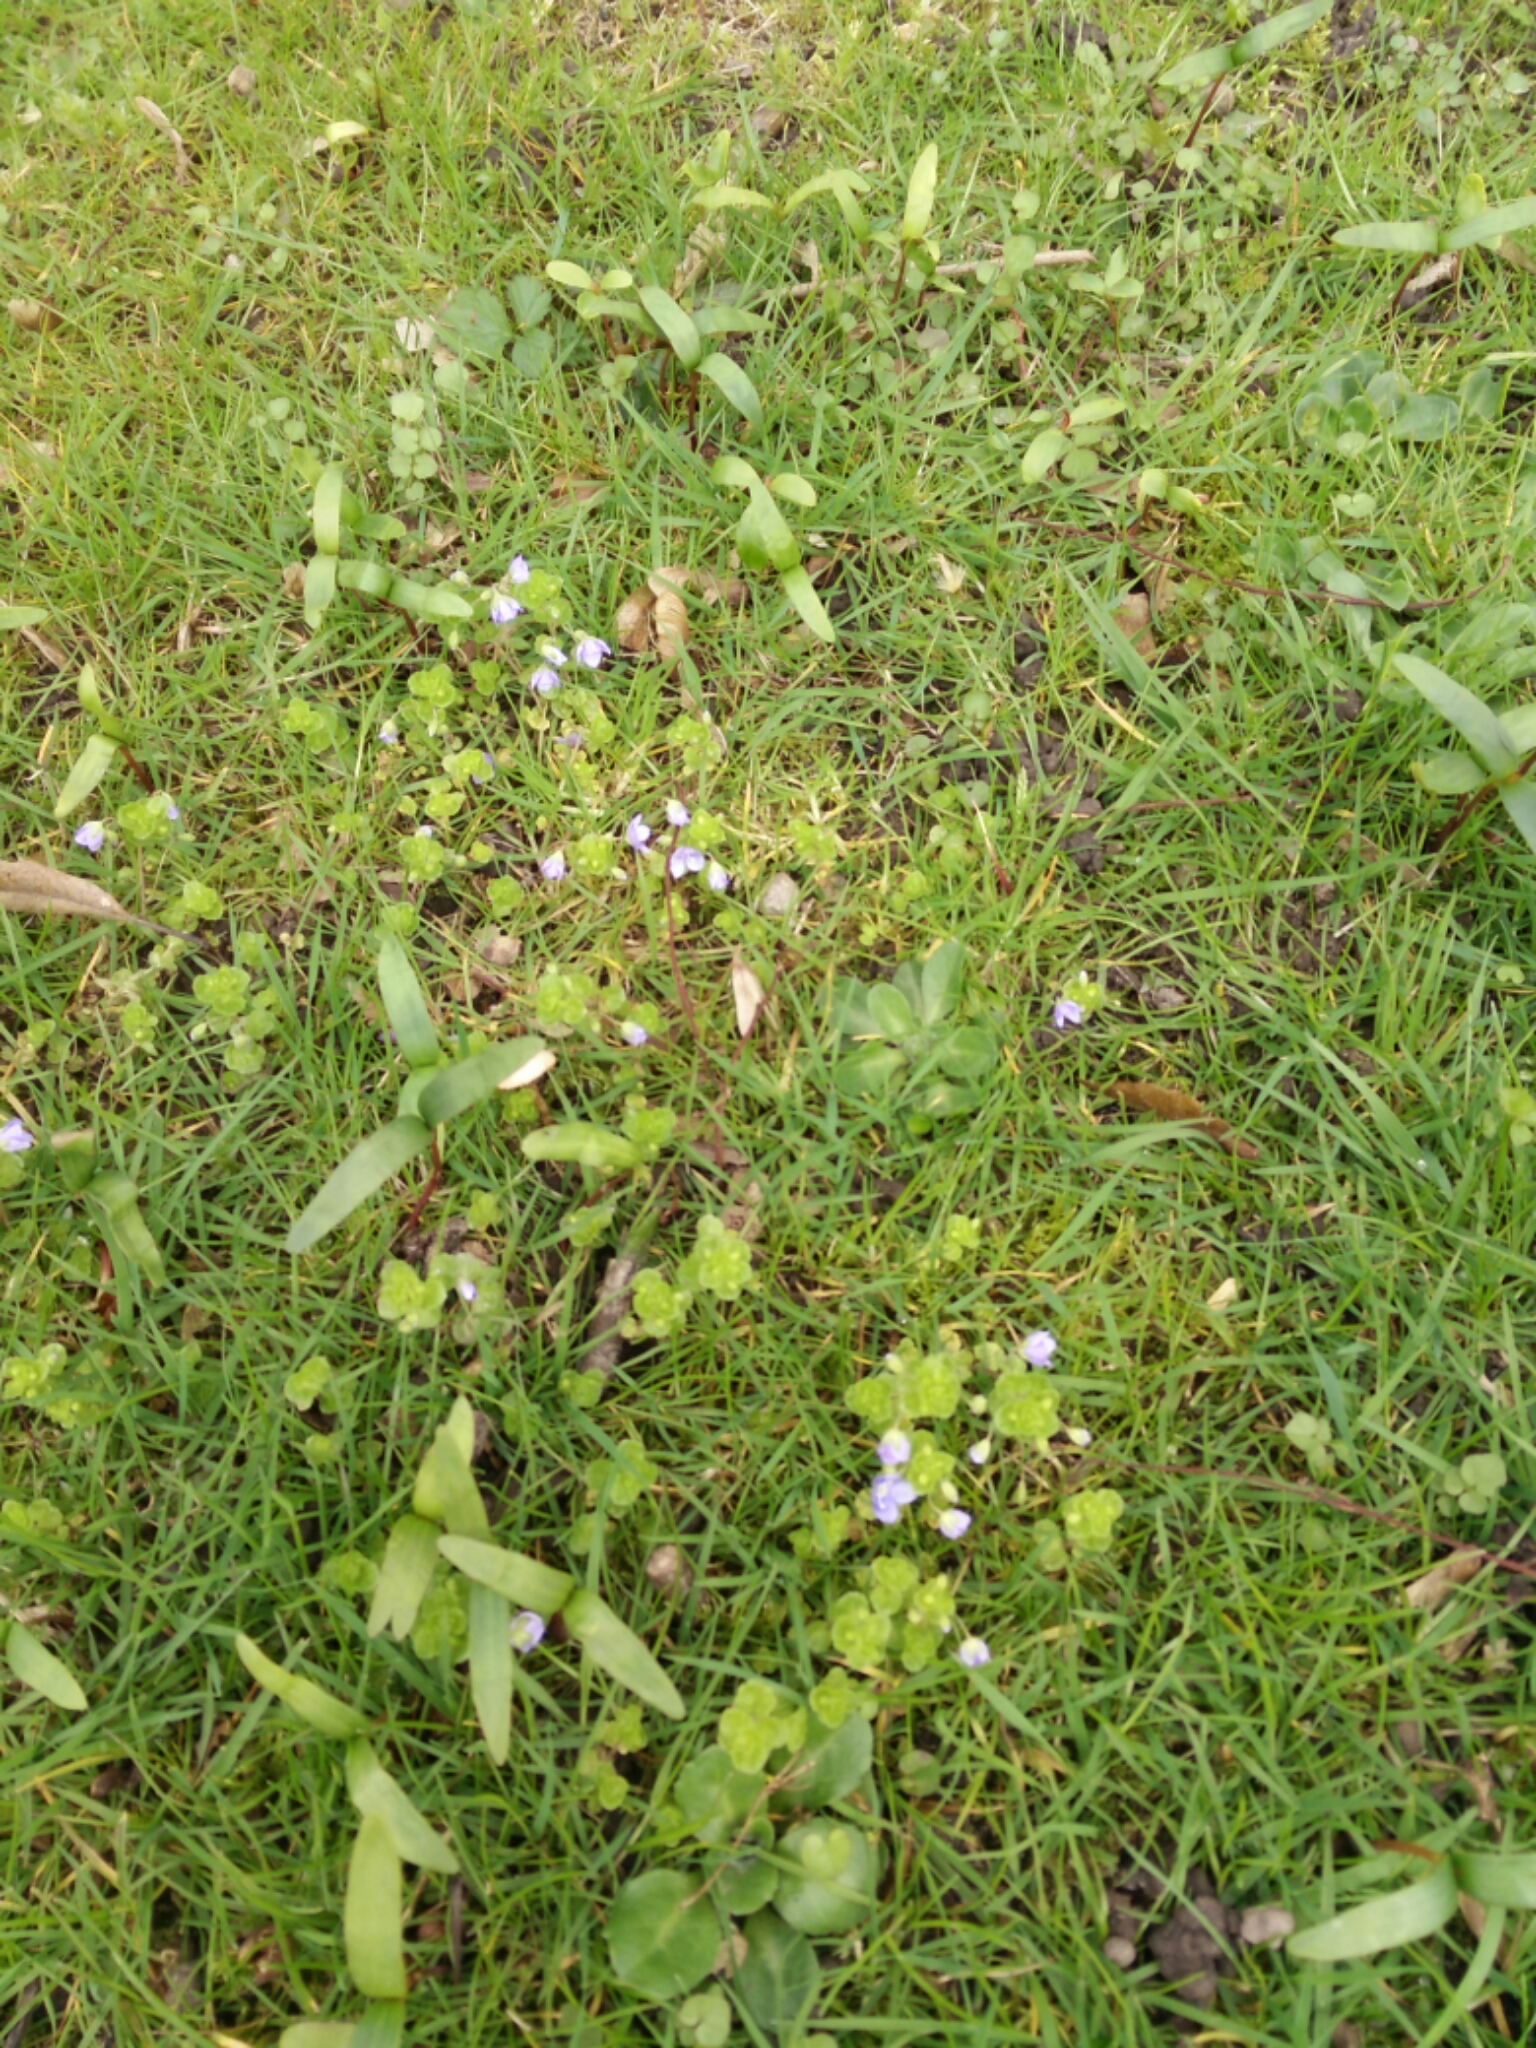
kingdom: Plantae
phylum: Tracheophyta
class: Magnoliopsida
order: Lamiales
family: Plantaginaceae
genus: Veronica
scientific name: Veronica filiformis
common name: Slender speedwell
